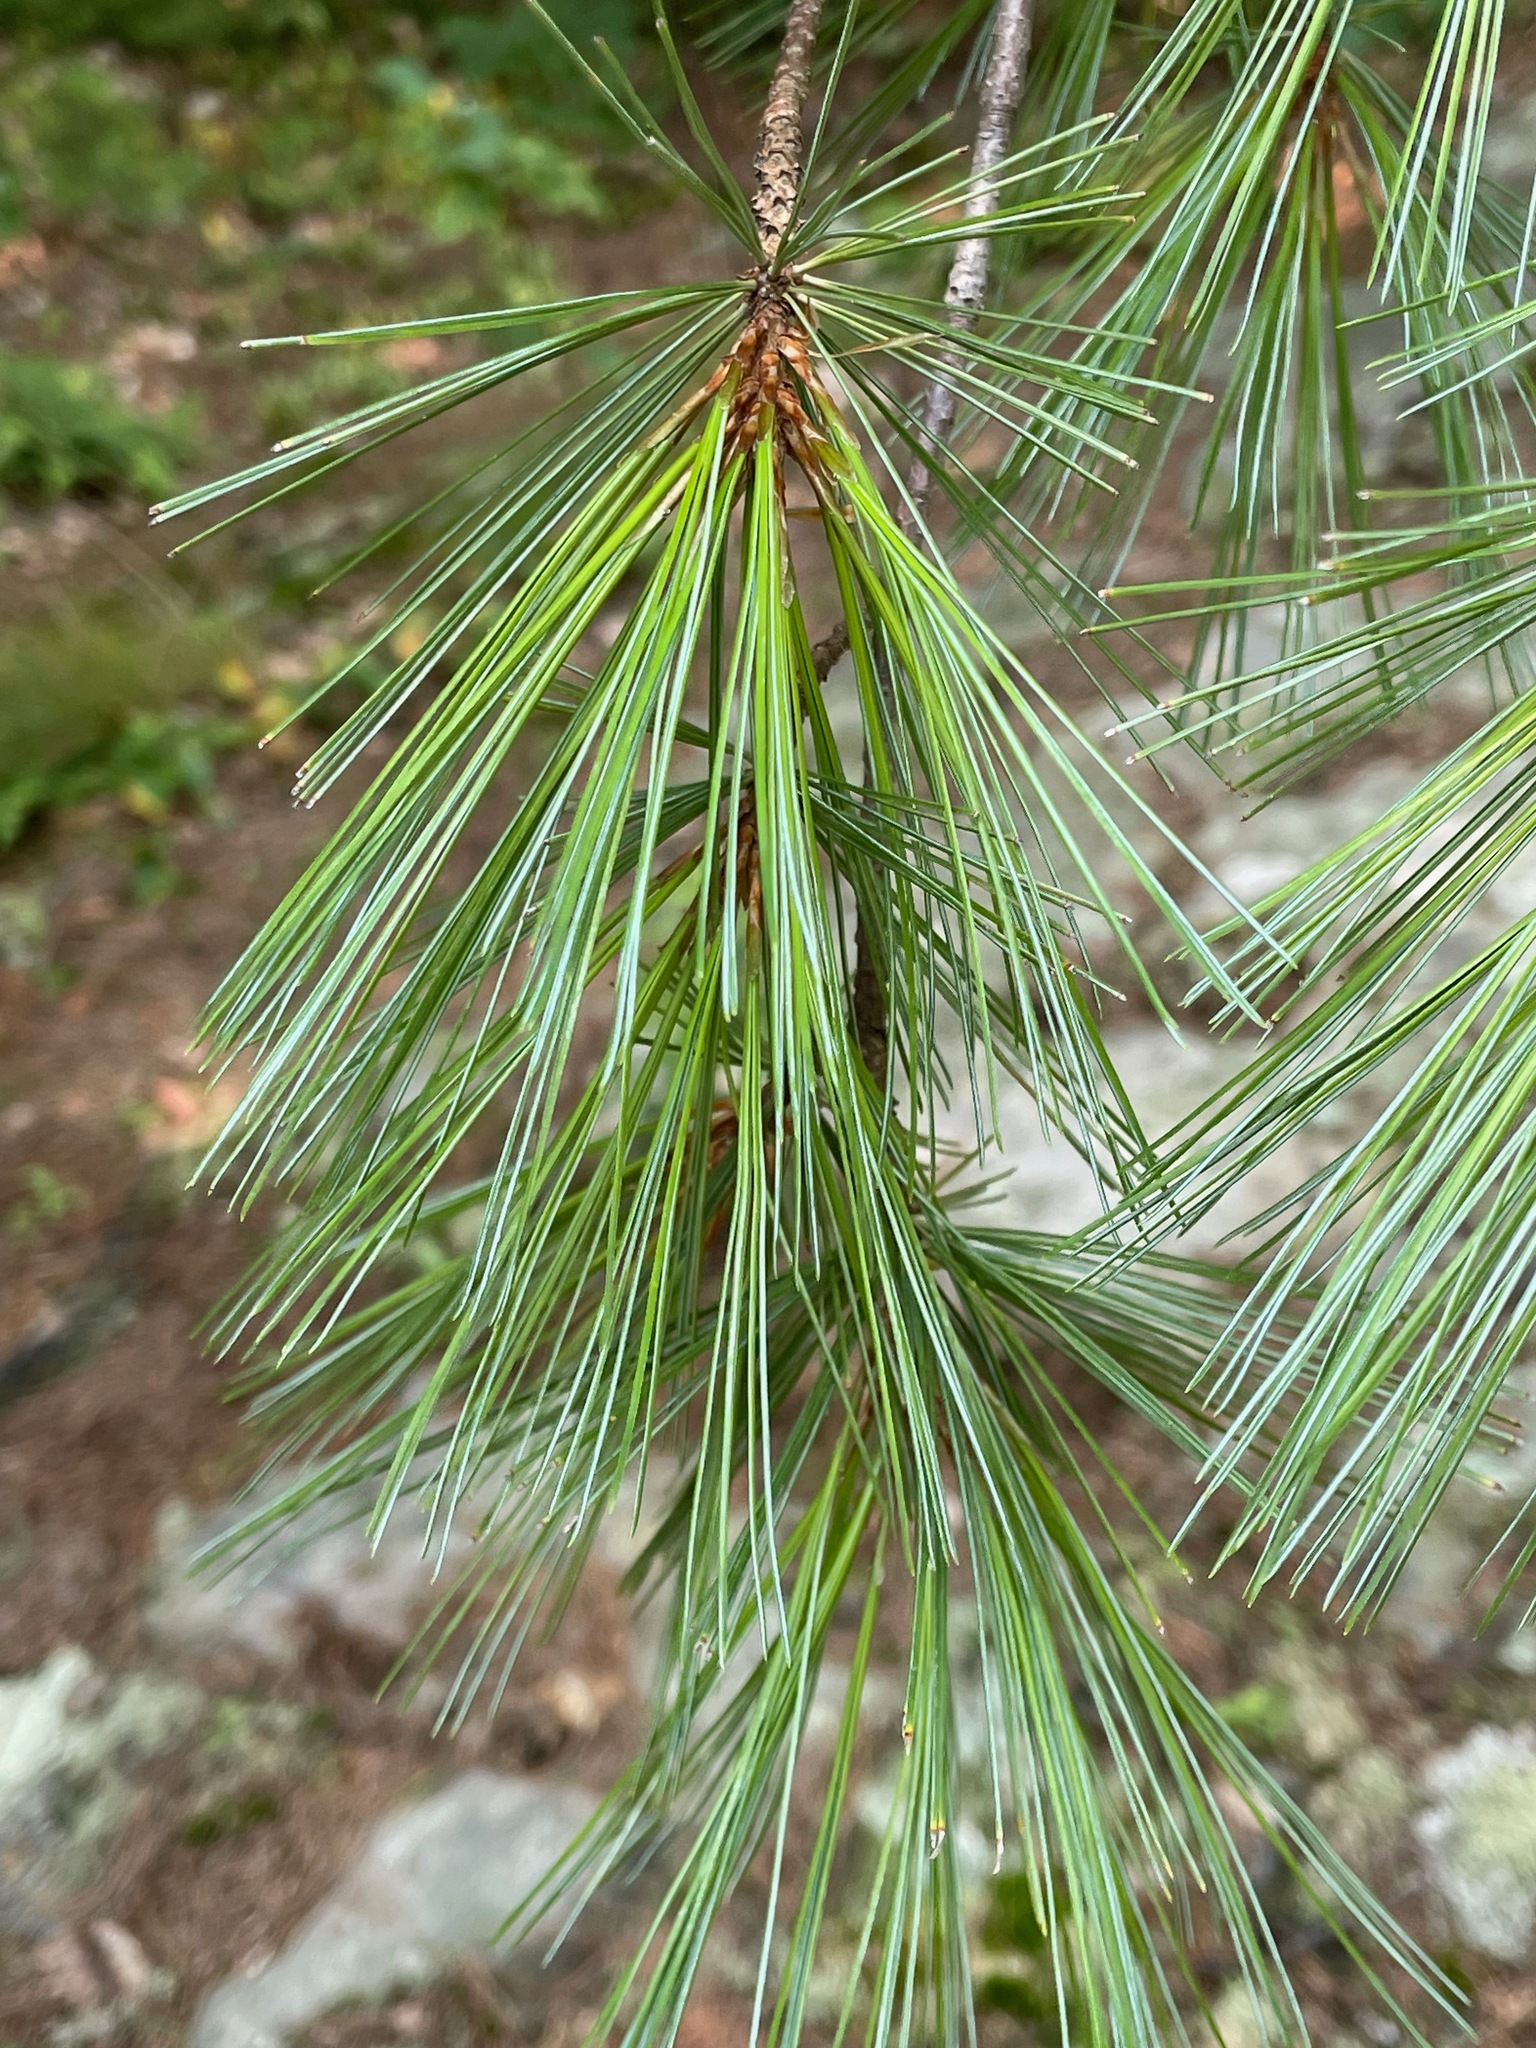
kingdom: Plantae
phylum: Tracheophyta
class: Pinopsida
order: Pinales
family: Pinaceae
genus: Pinus
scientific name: Pinus strobus
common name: Weymouth pine
